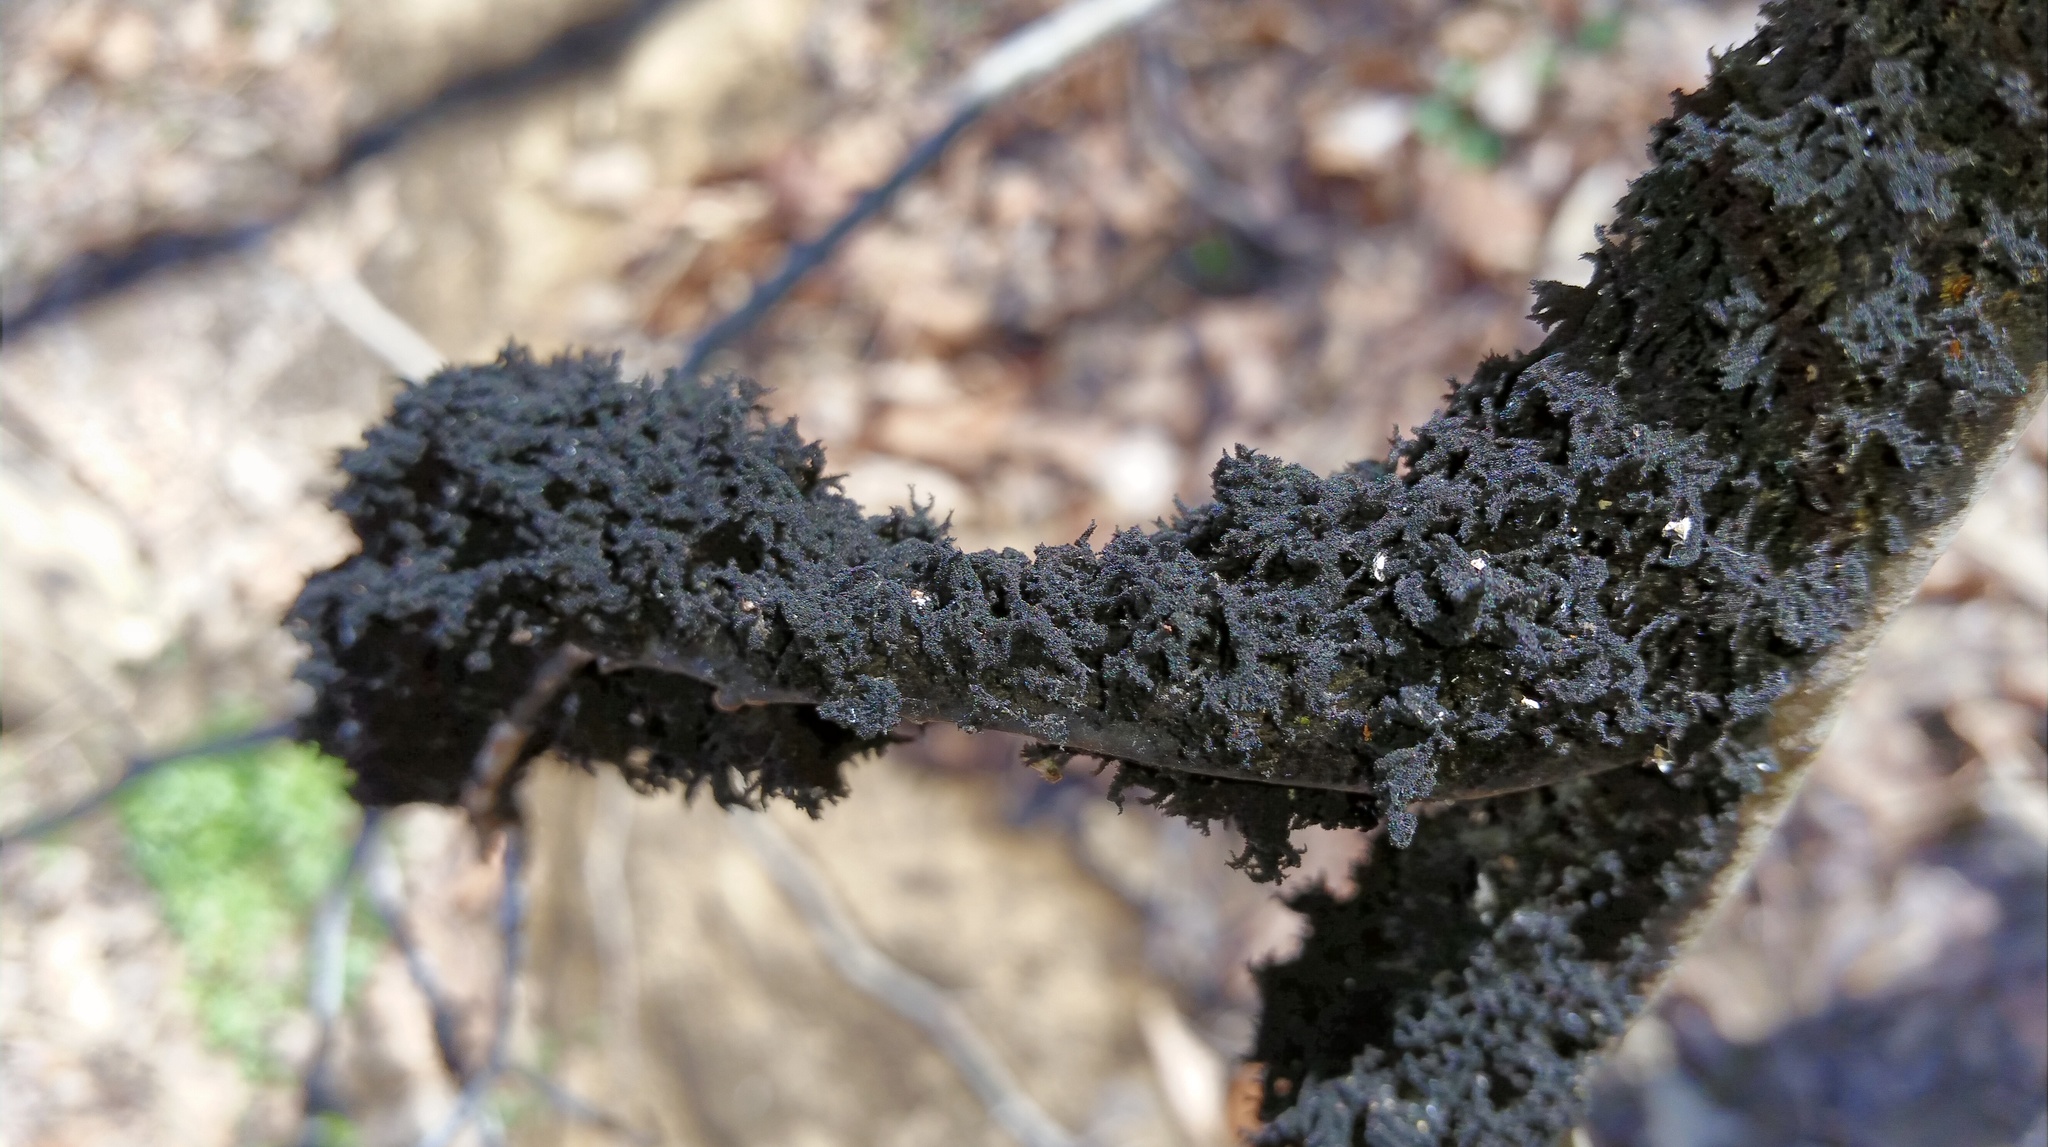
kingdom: Fungi
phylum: Ascomycota
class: Dothideomycetes
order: Capnodiales
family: Capnodiaceae
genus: Scorias
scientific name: Scorias spongiosa
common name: Black sooty mold
